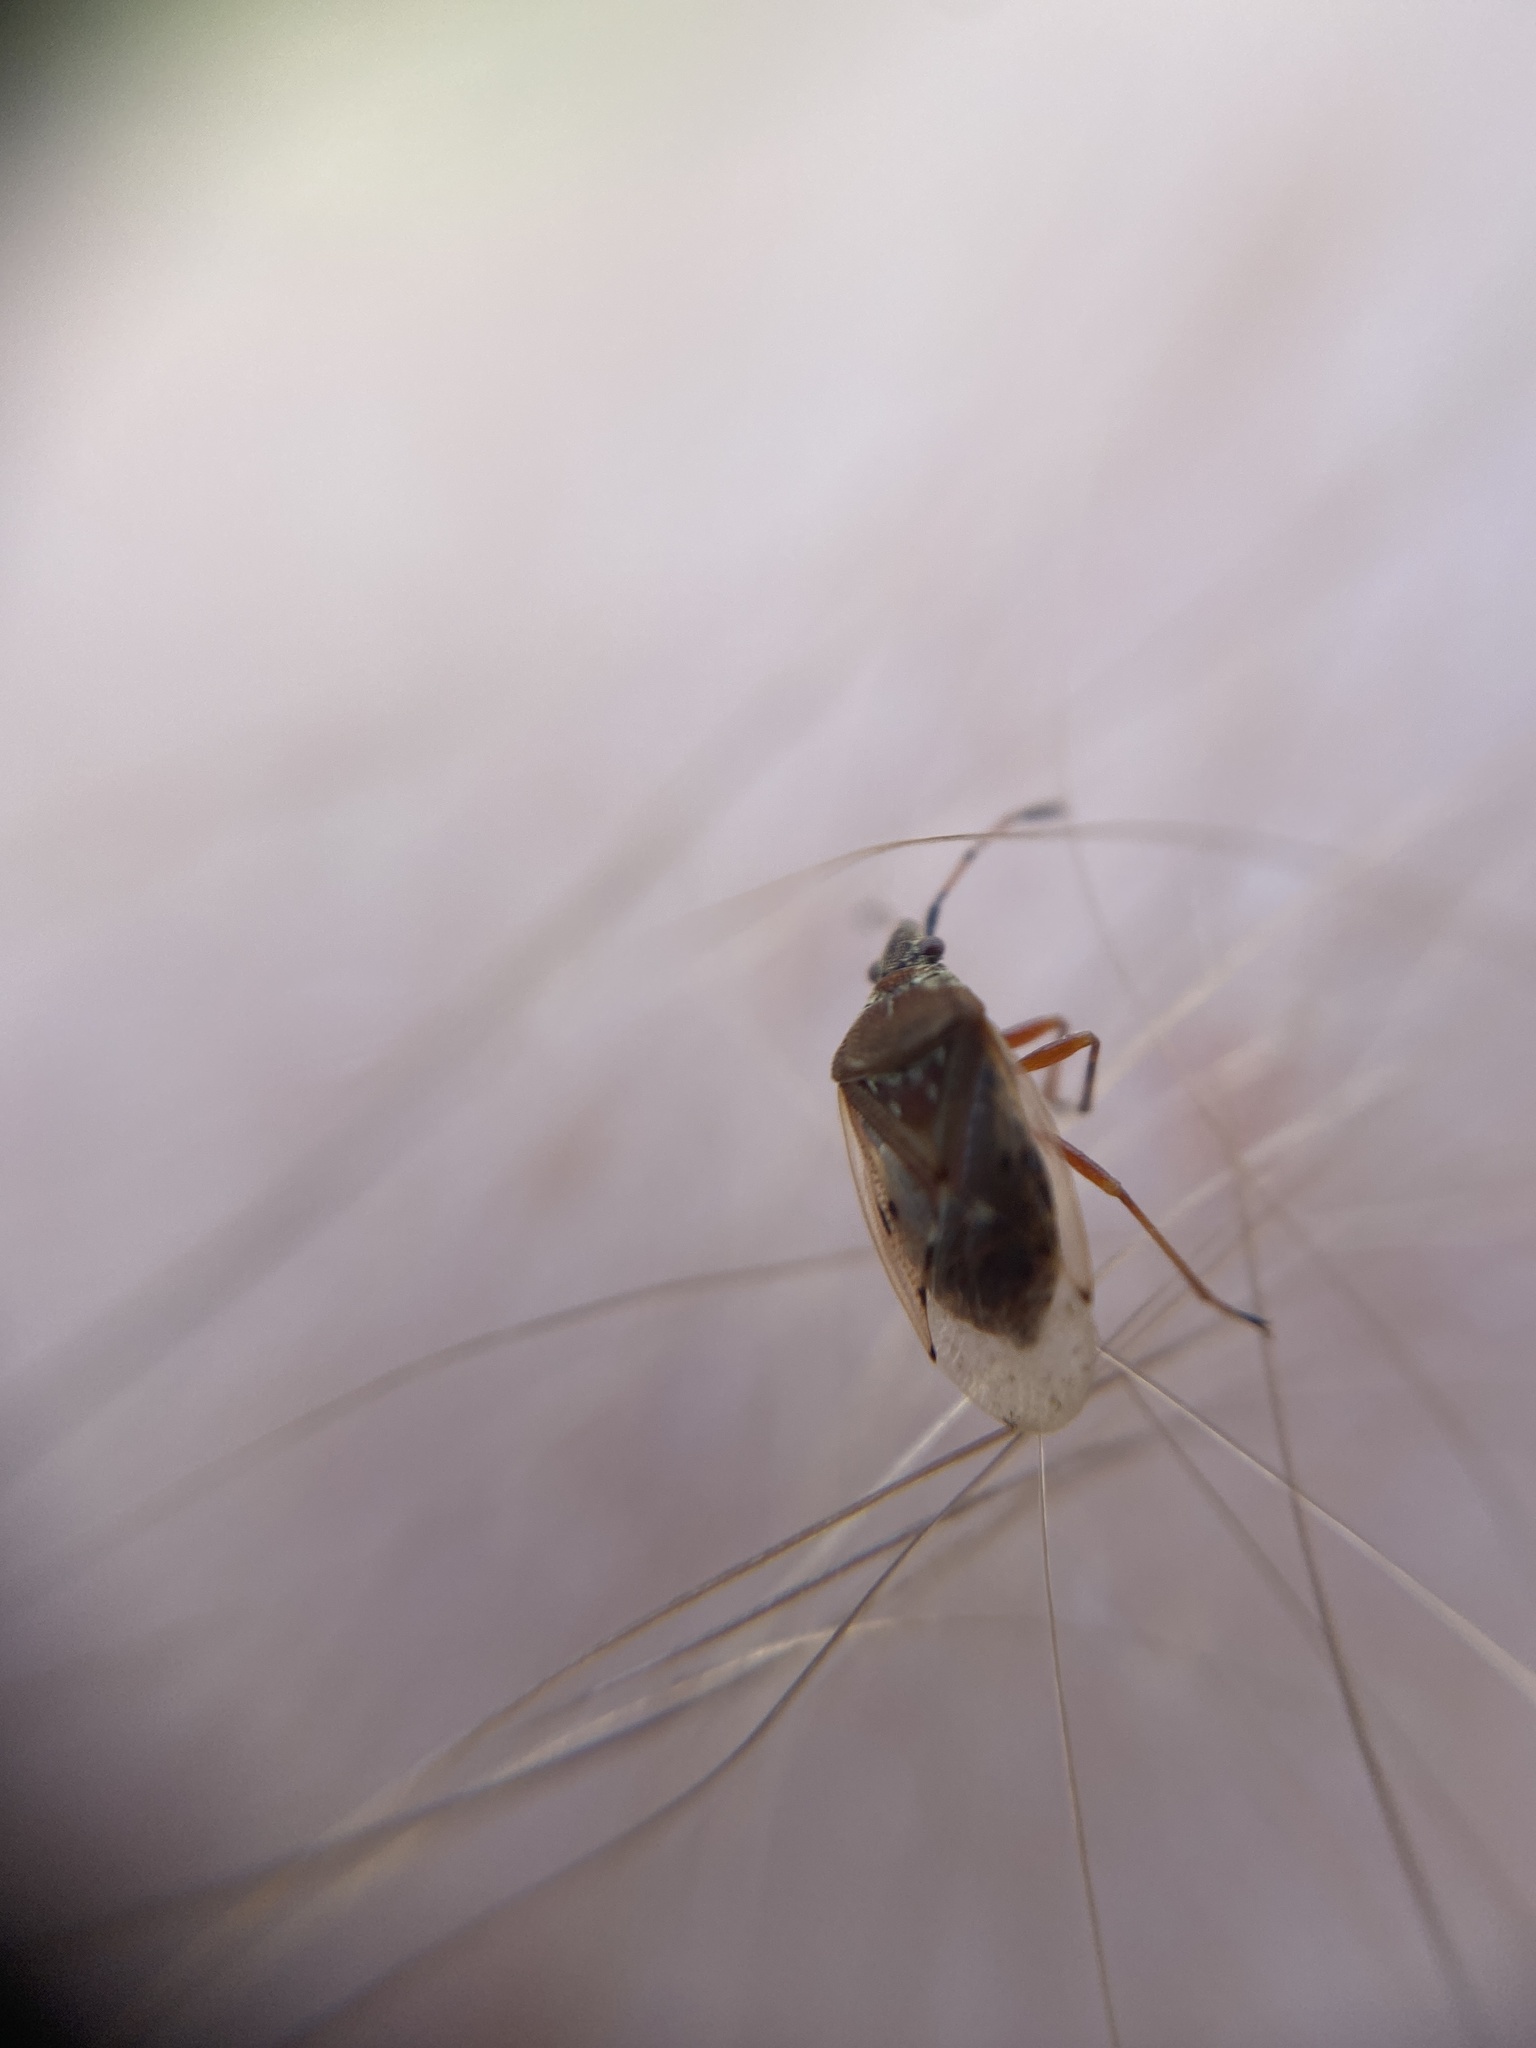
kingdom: Animalia
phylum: Arthropoda
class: Insecta
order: Hemiptera
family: Lygaeidae
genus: Kleidocerys
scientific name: Kleidocerys resedae
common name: Birch catkin bug
